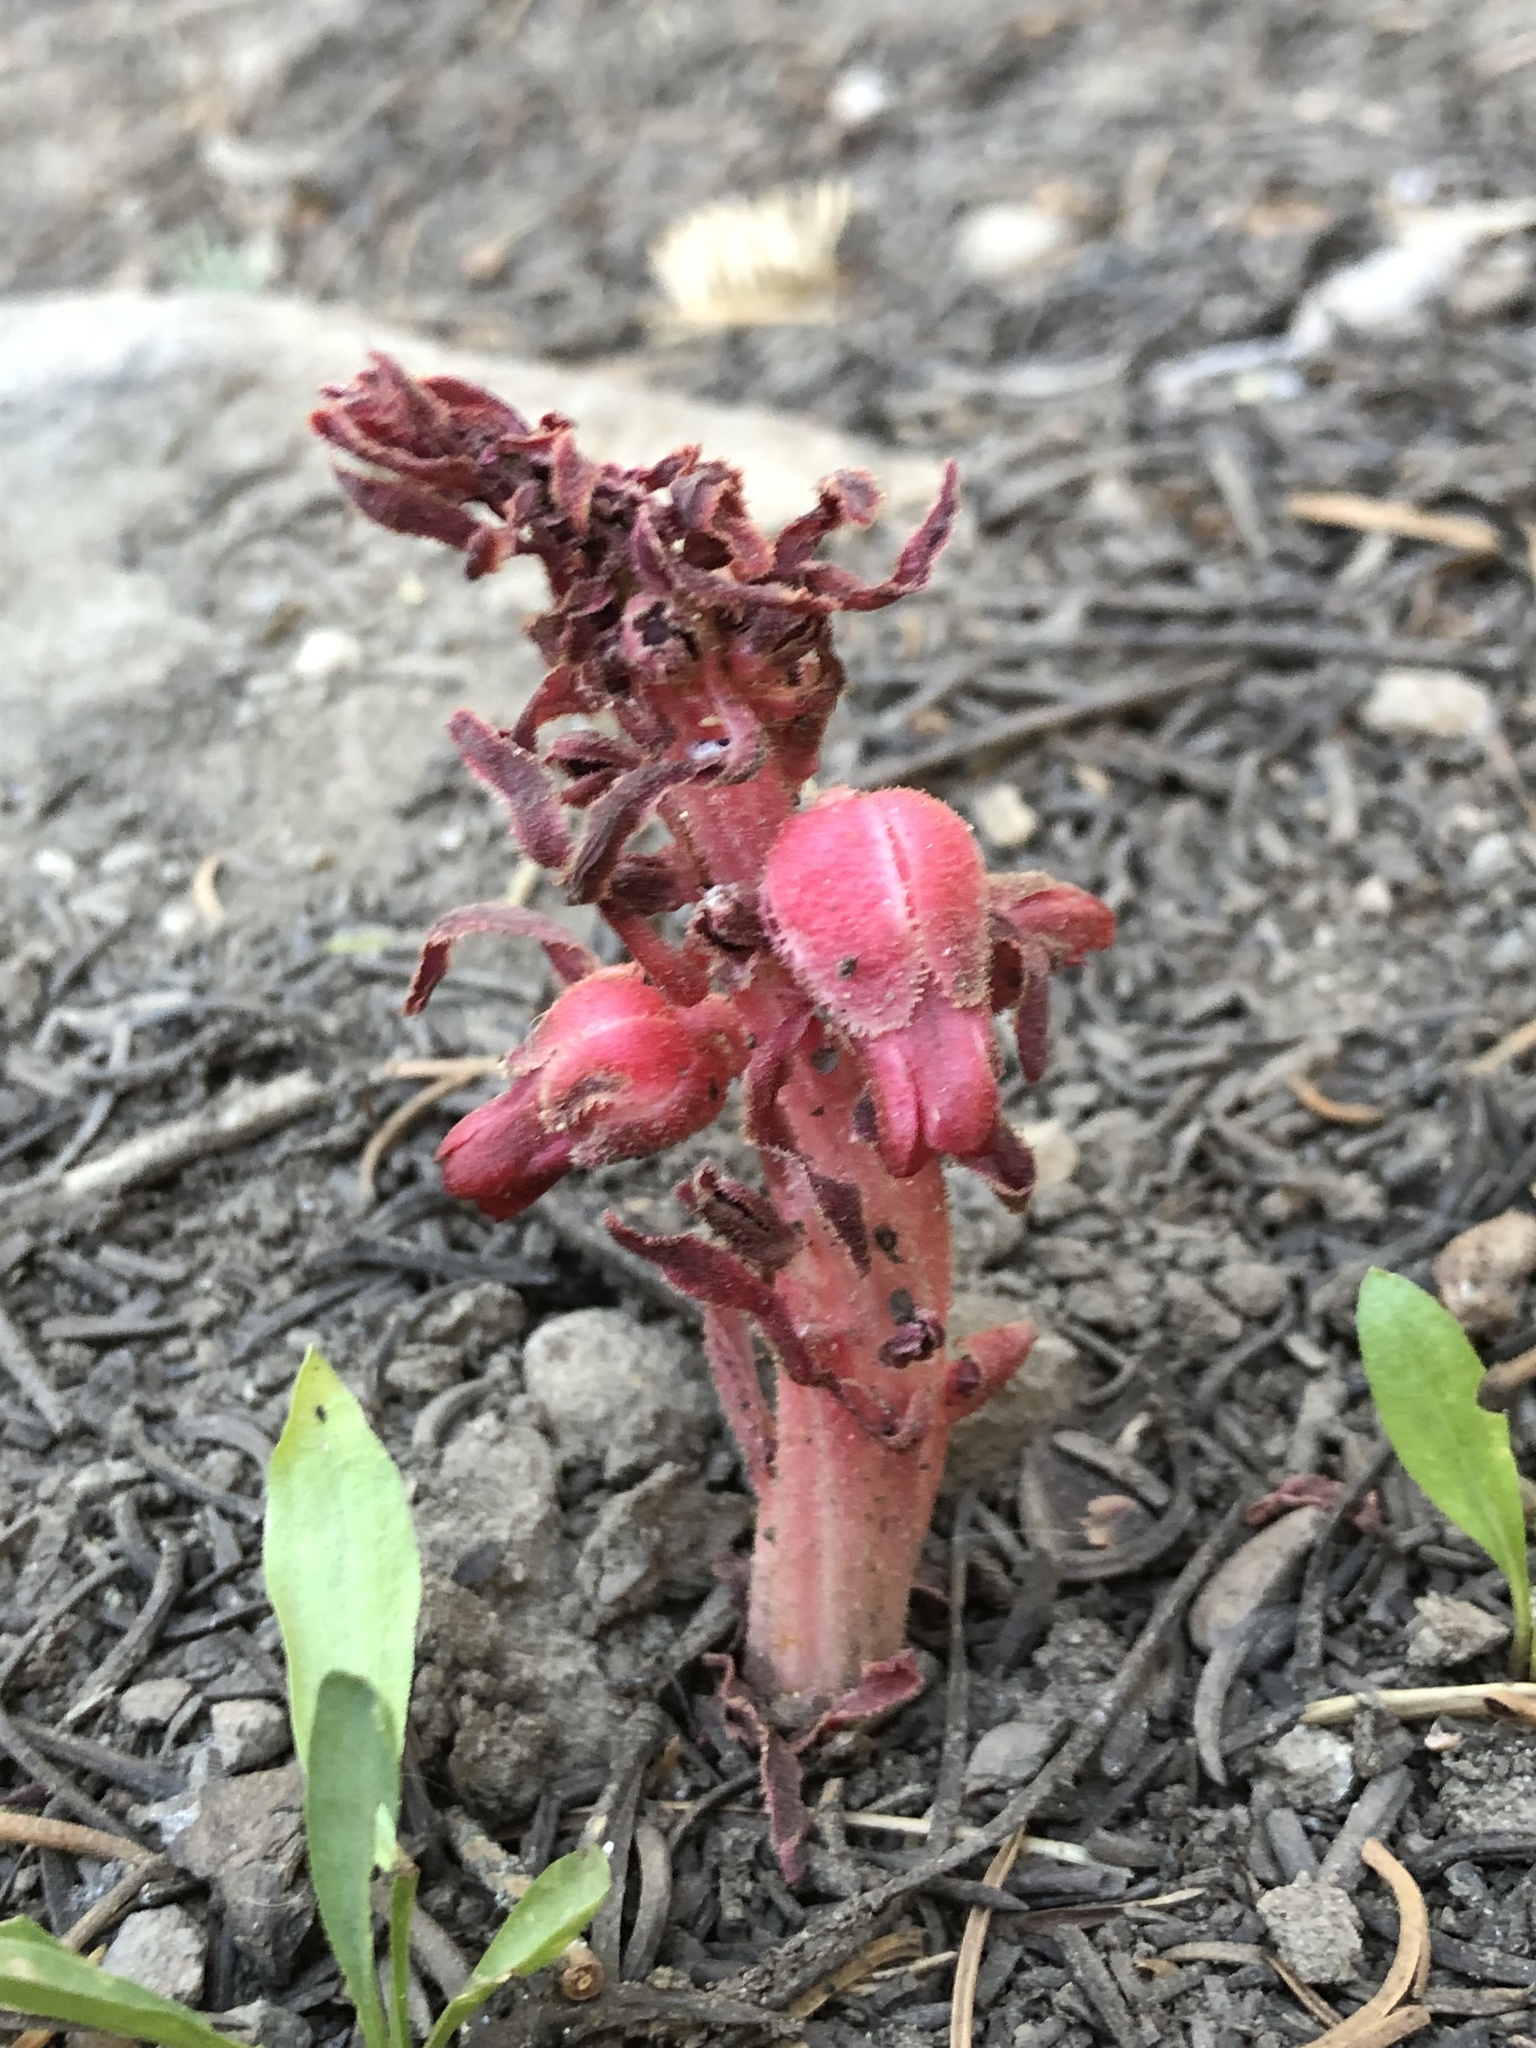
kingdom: Plantae
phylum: Tracheophyta
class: Magnoliopsida
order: Ericales
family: Ericaceae
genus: Sarcodes
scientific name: Sarcodes sanguinea
